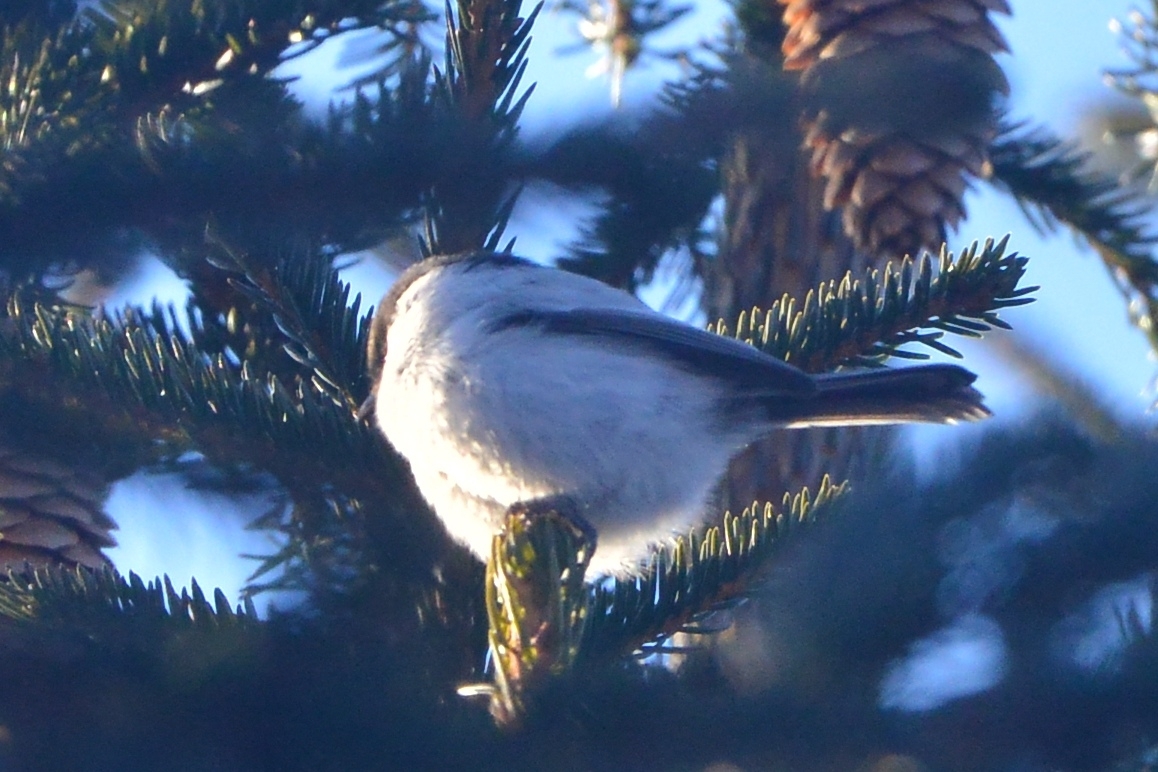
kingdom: Animalia
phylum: Chordata
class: Aves
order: Passeriformes
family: Paridae
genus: Poecile
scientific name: Poecile montanus
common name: Willow tit
